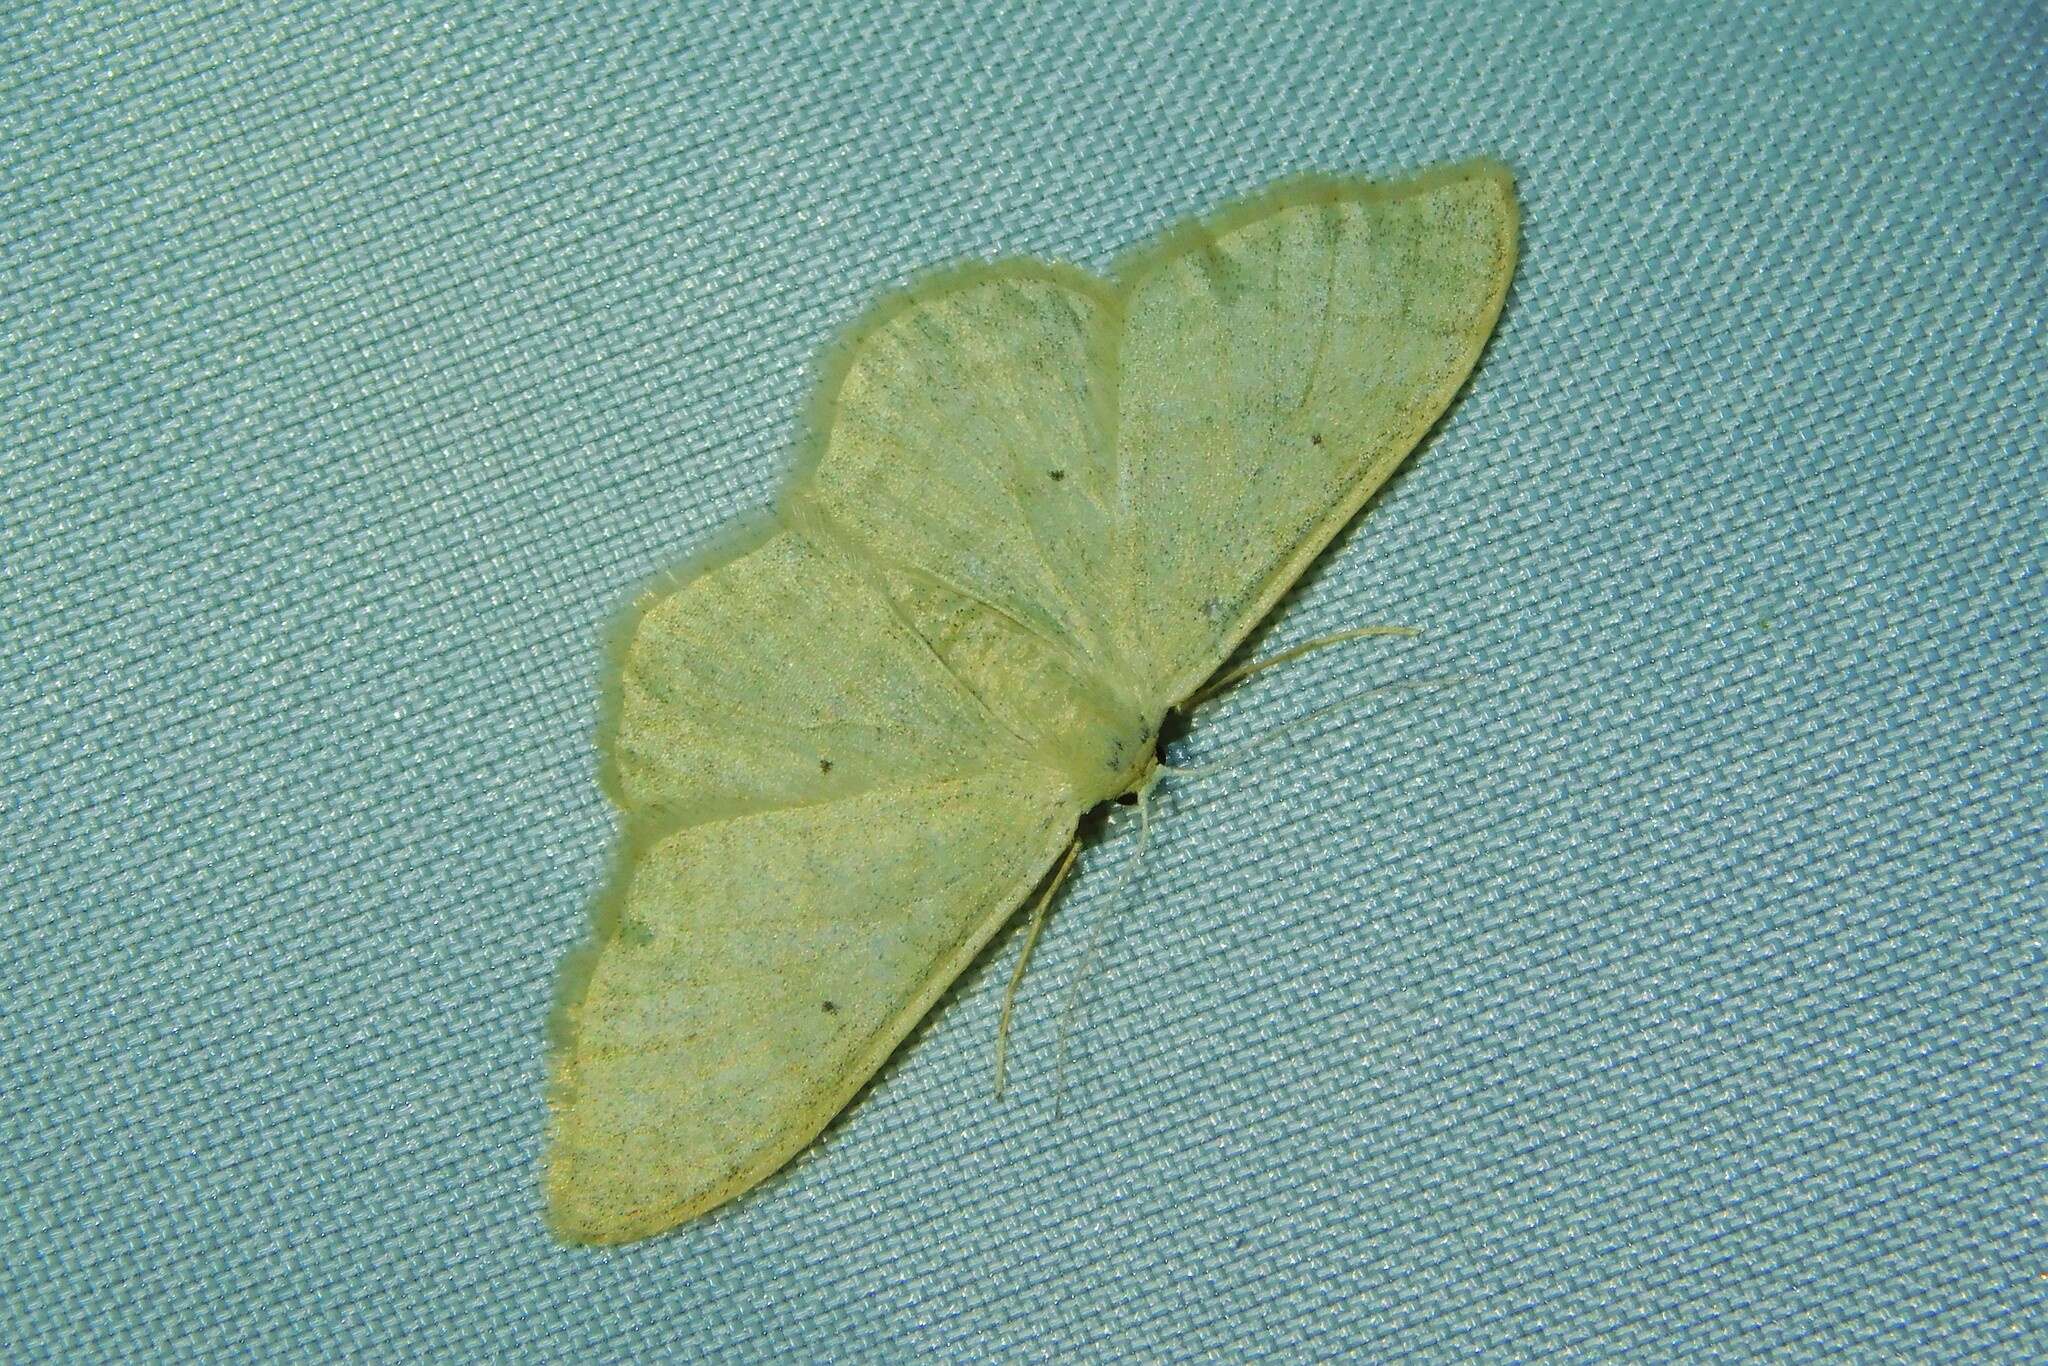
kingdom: Animalia
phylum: Arthropoda
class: Insecta
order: Lepidoptera
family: Geometridae
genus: Idaea
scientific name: Idaea straminata
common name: Plain wave
